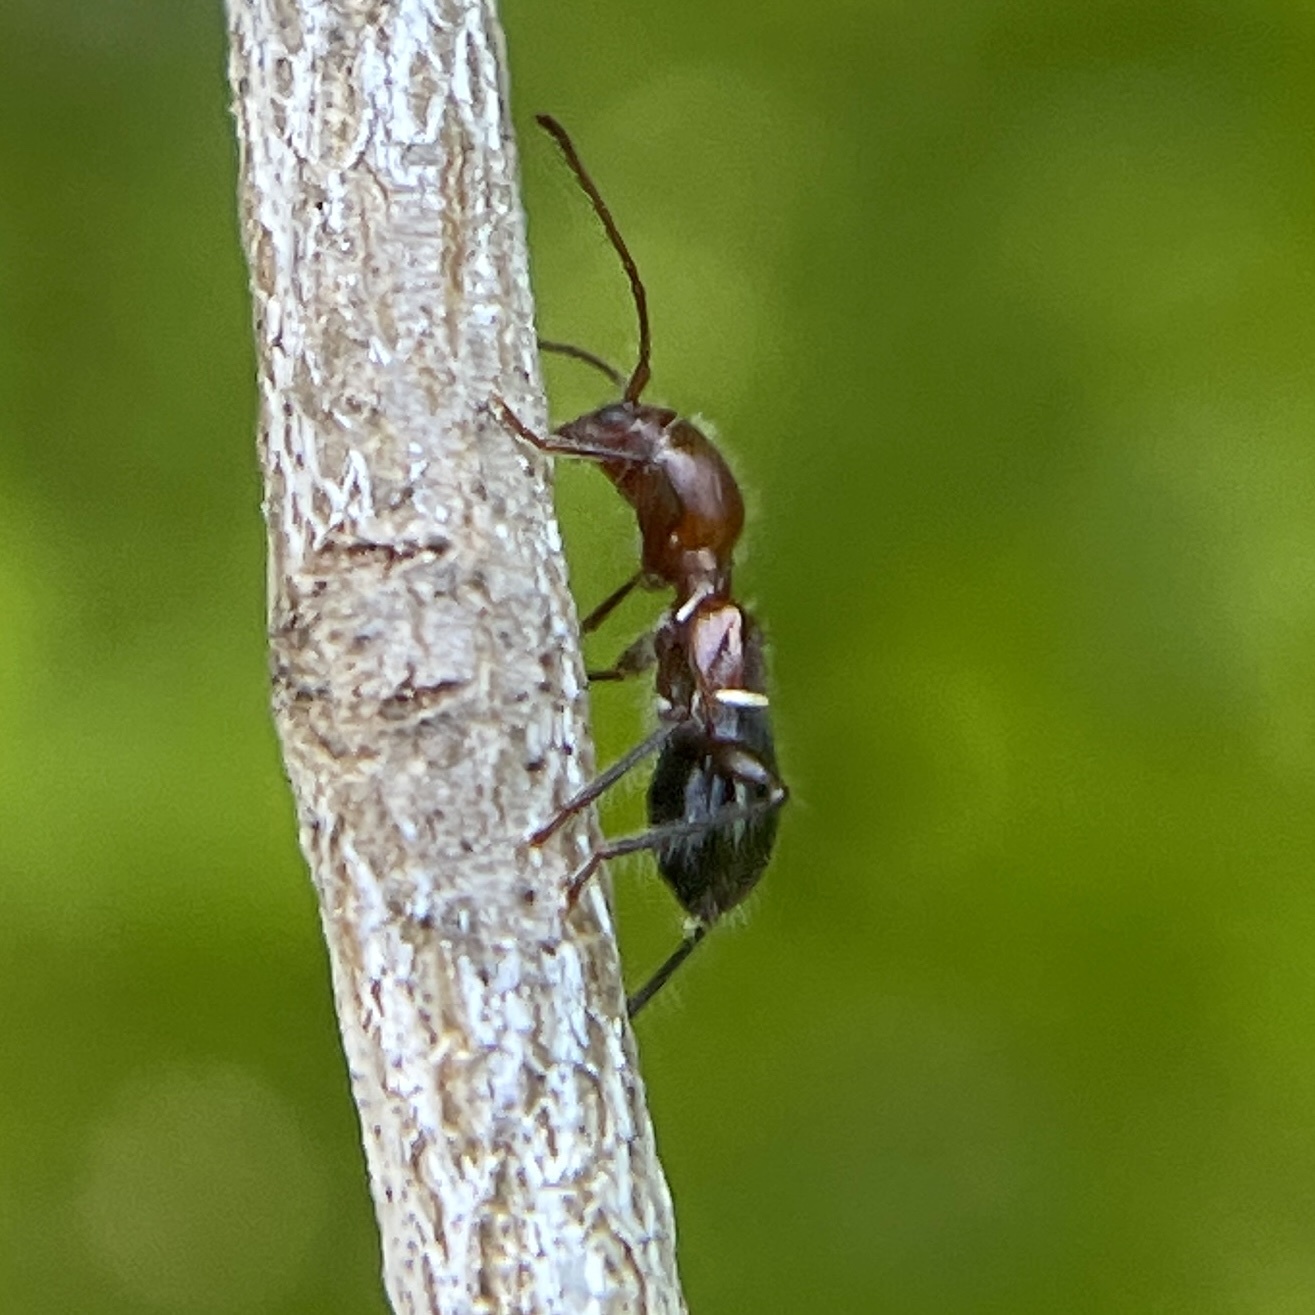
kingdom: Animalia
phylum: Arthropoda
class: Insecta
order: Coleoptera
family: Cerambycidae
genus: Euderces
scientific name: Euderces reichei
